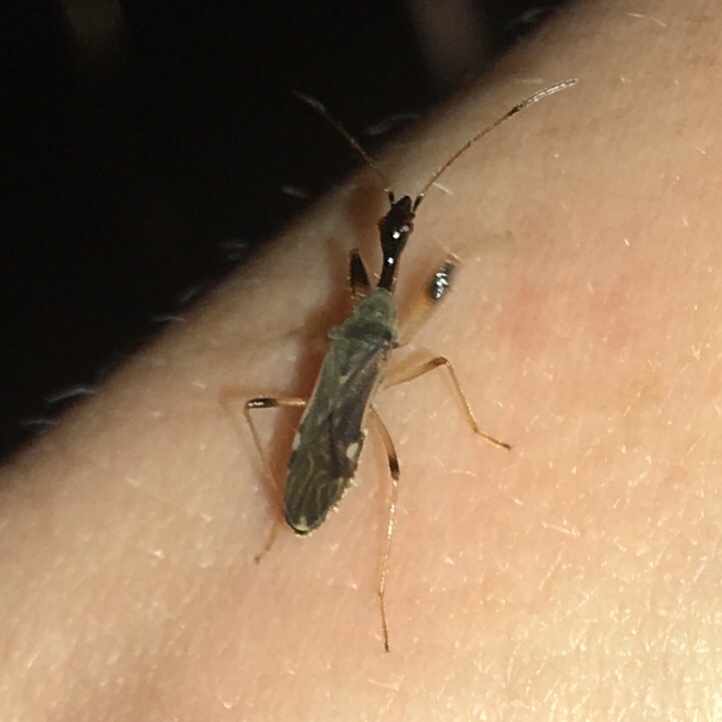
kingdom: Animalia
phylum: Arthropoda
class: Insecta
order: Hemiptera
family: Rhyparochromidae
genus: Myodocha
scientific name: Myodocha serripes
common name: Long-necked seed bug
